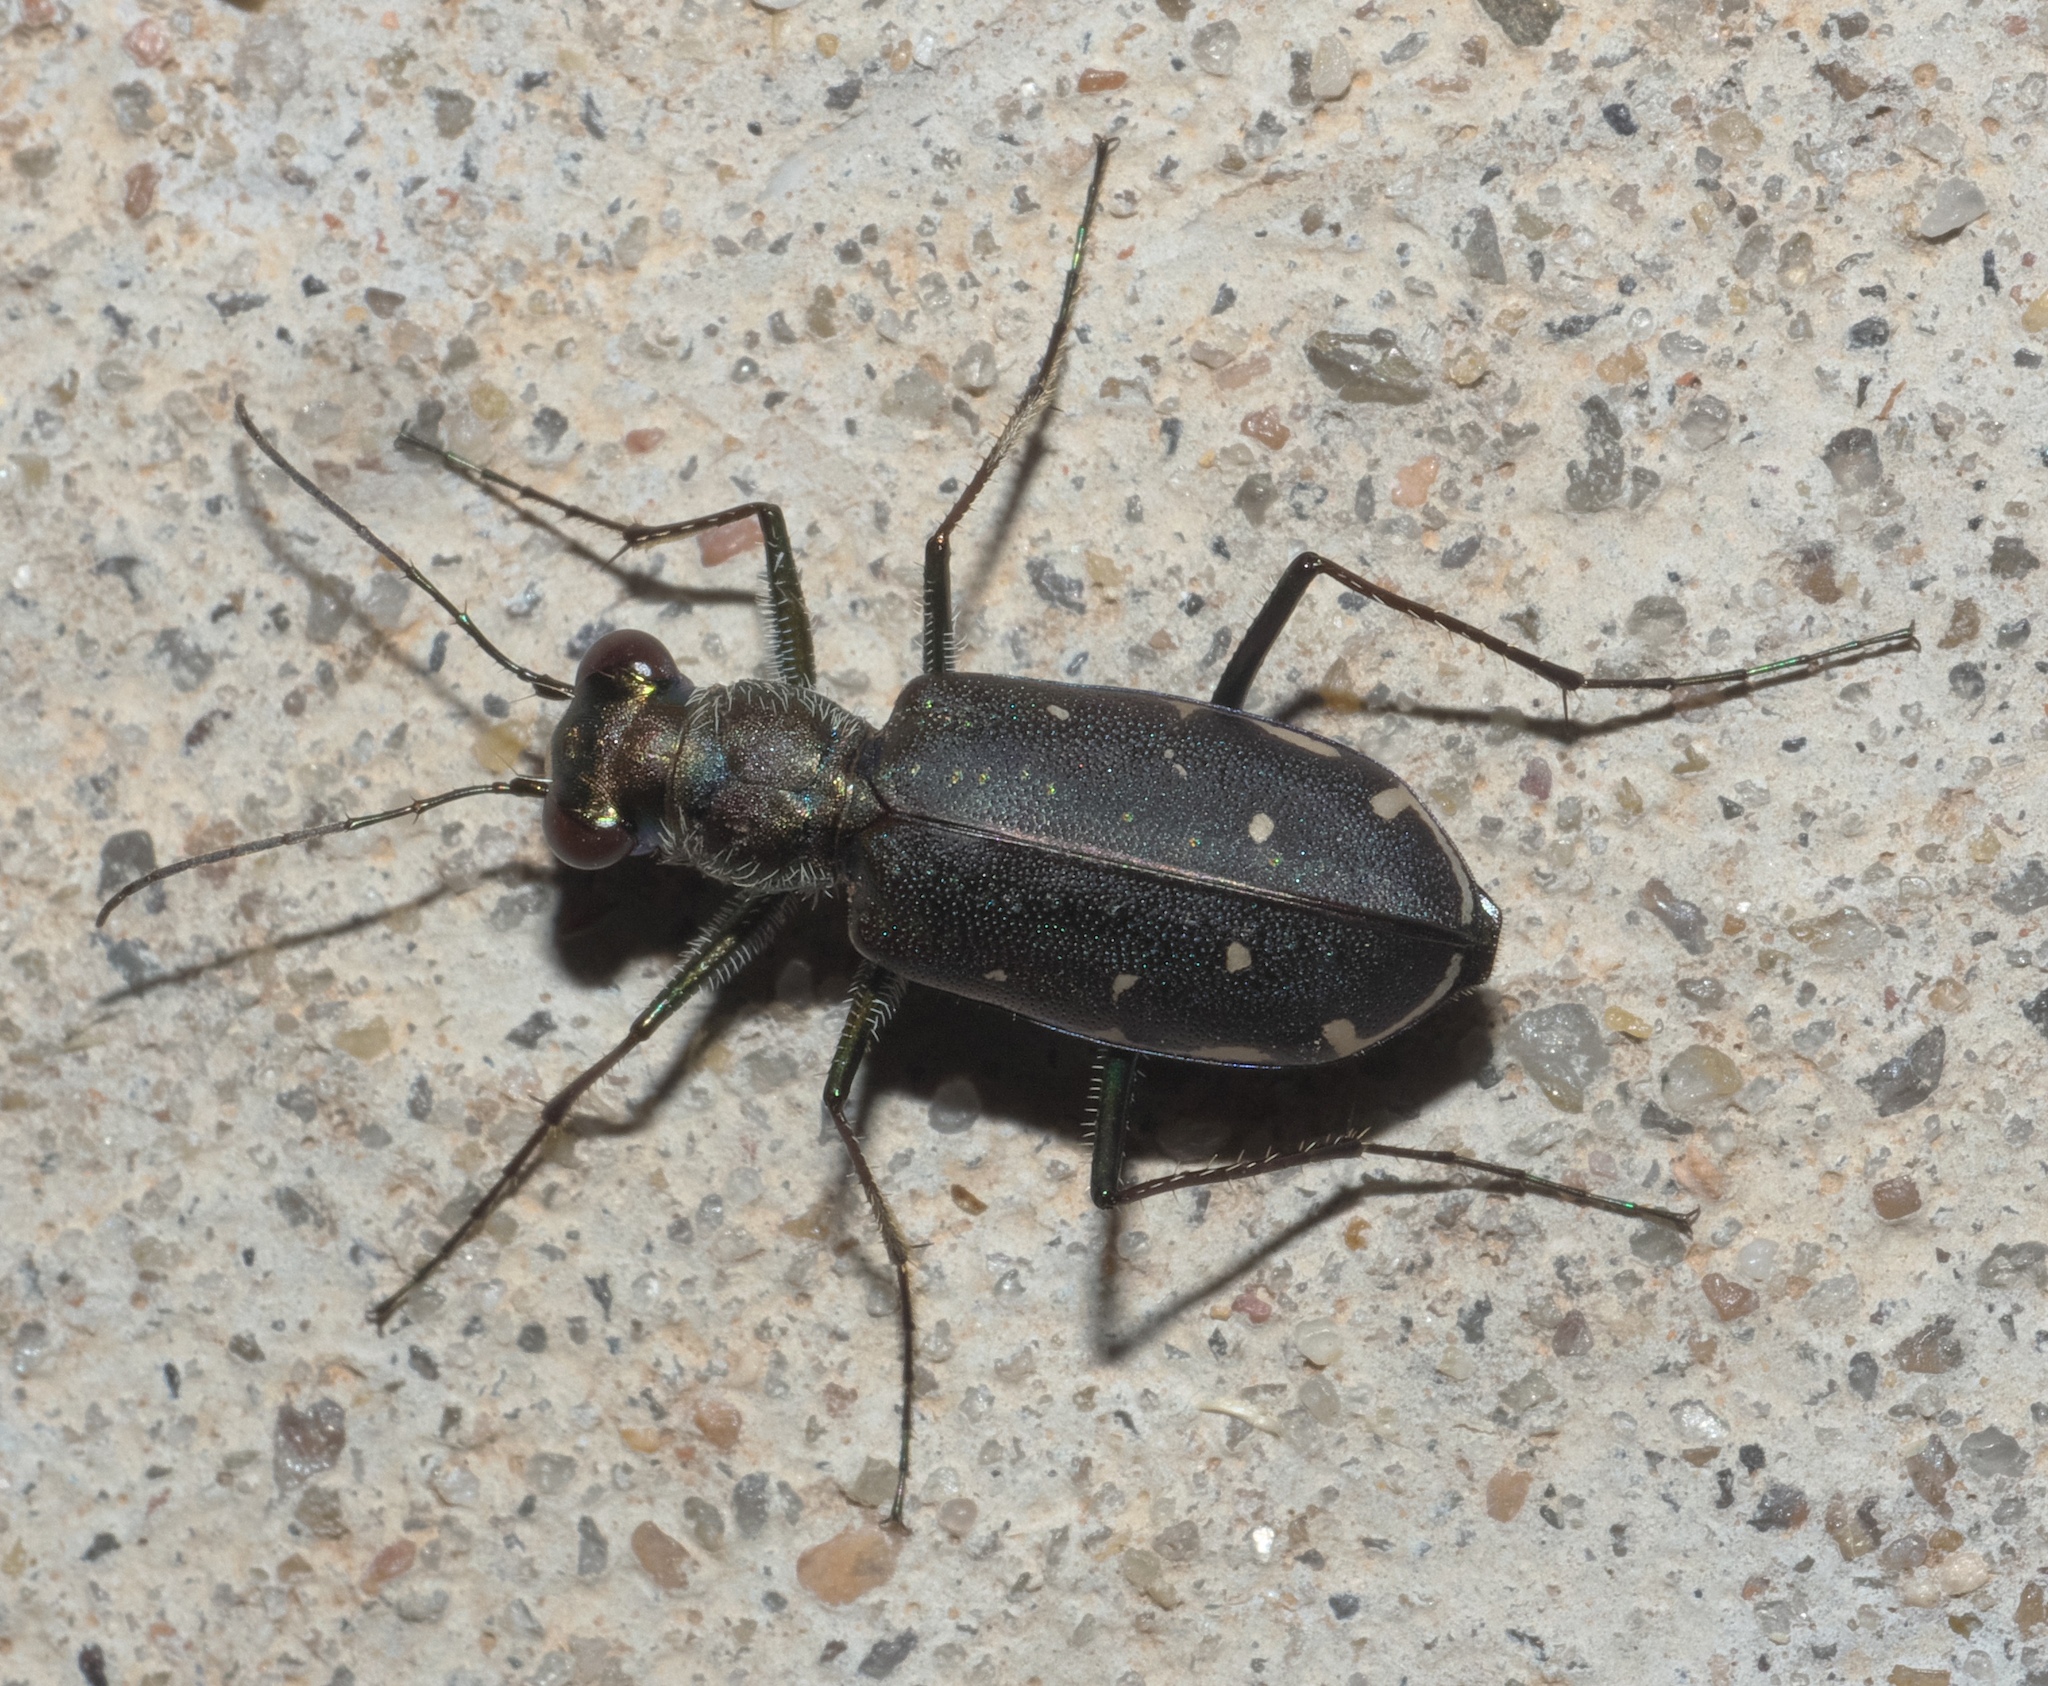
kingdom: Animalia
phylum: Arthropoda
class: Insecta
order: Coleoptera
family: Carabidae
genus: Cicindela
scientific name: Cicindela punctulata
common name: Punctured tiger beetle
